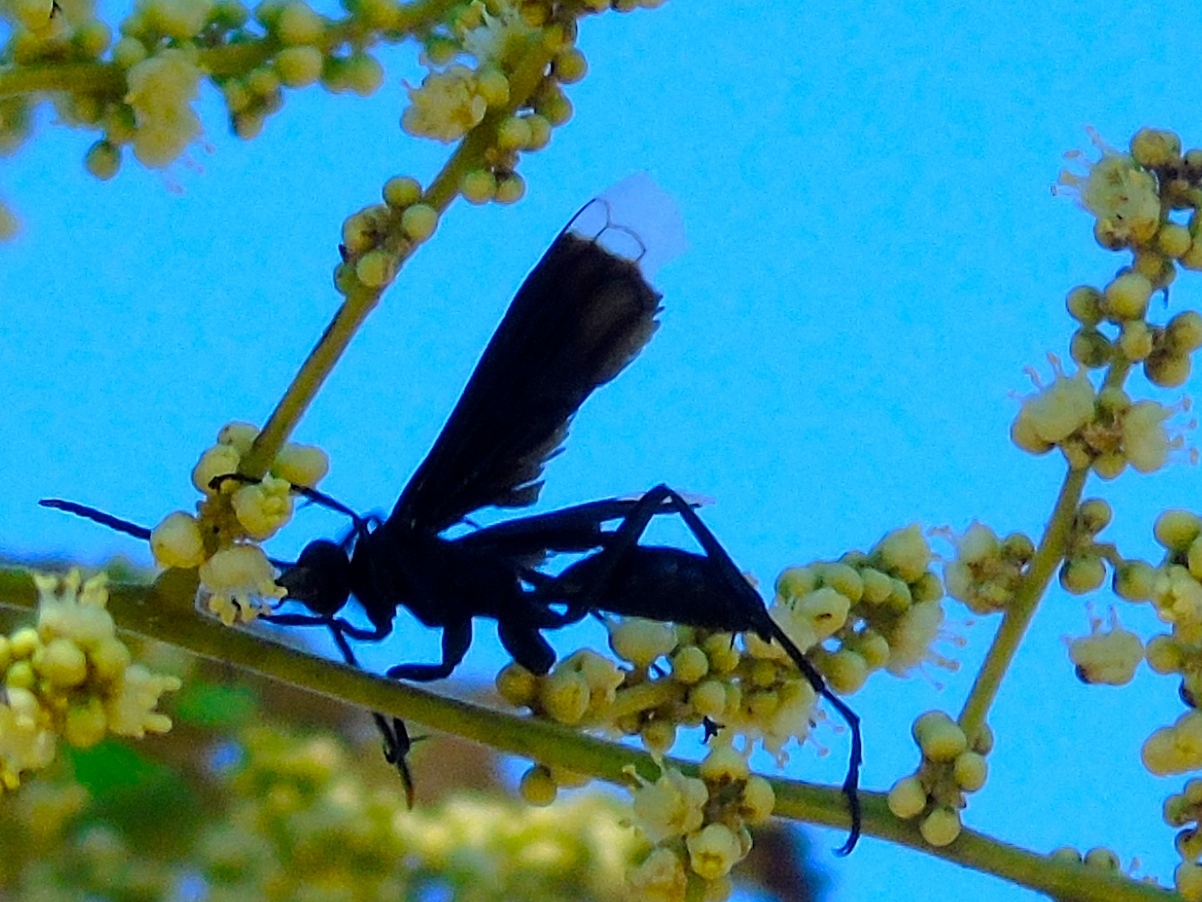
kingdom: Animalia
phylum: Arthropoda
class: Insecta
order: Hymenoptera
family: Pompilidae
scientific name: Pompilidae
